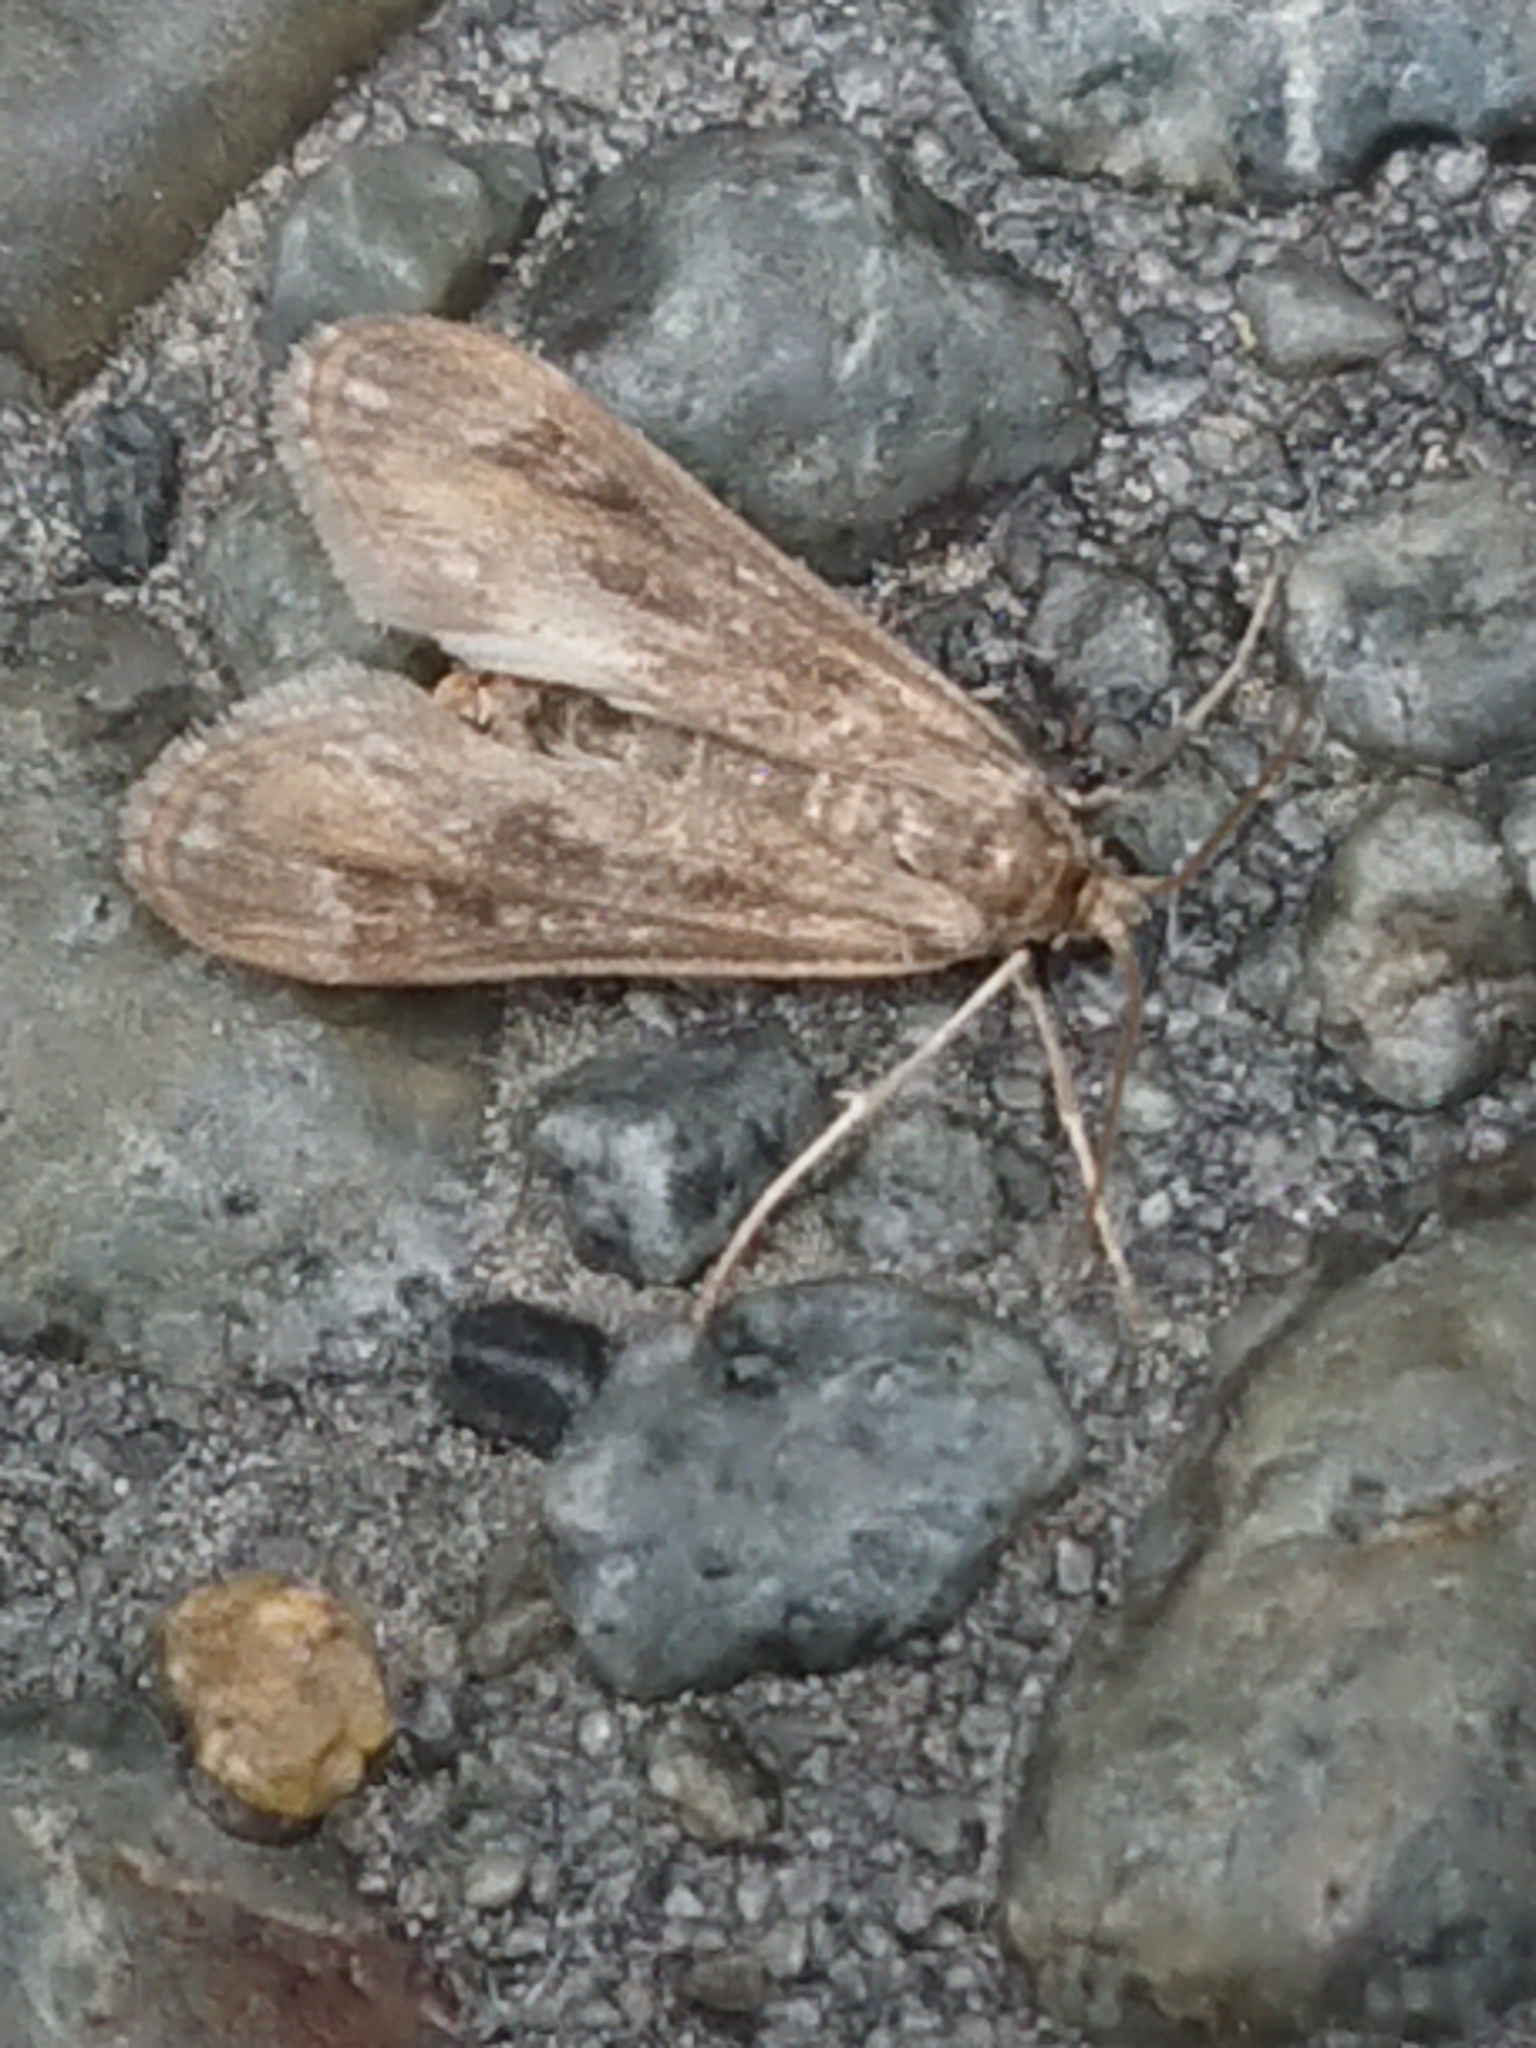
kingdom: Animalia
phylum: Arthropoda
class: Insecta
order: Lepidoptera
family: Crambidae
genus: Hygraula
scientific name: Hygraula nitens
